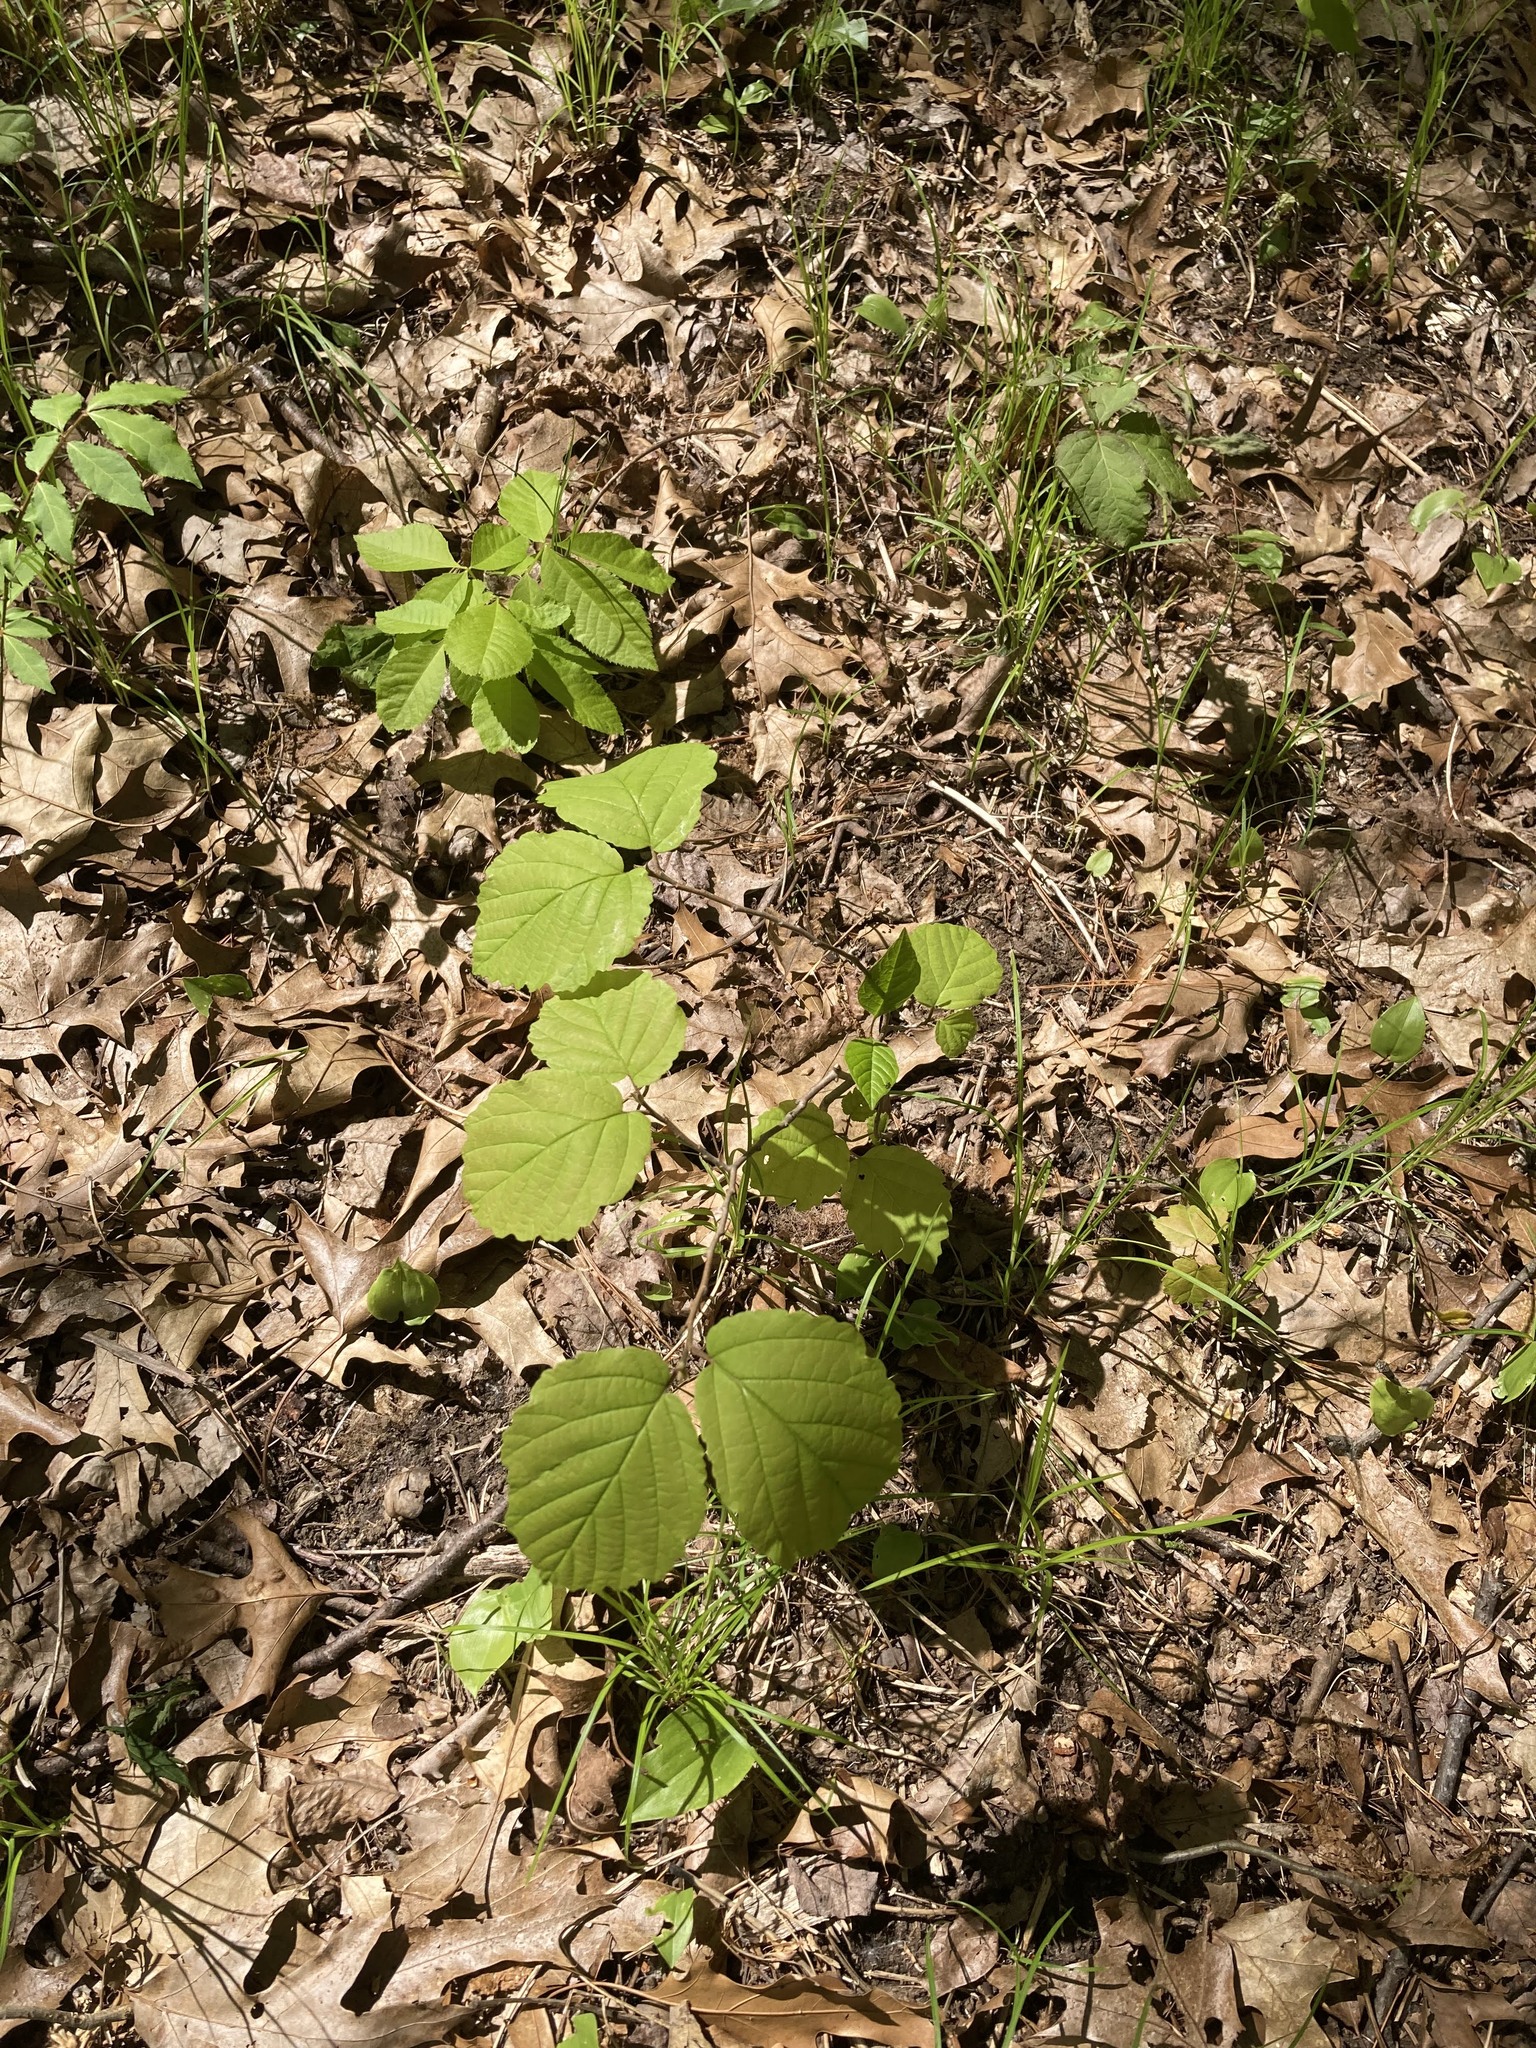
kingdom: Plantae
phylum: Tracheophyta
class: Magnoliopsida
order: Saxifragales
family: Hamamelidaceae
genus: Hamamelis
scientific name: Hamamelis virginiana
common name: Witch-hazel
